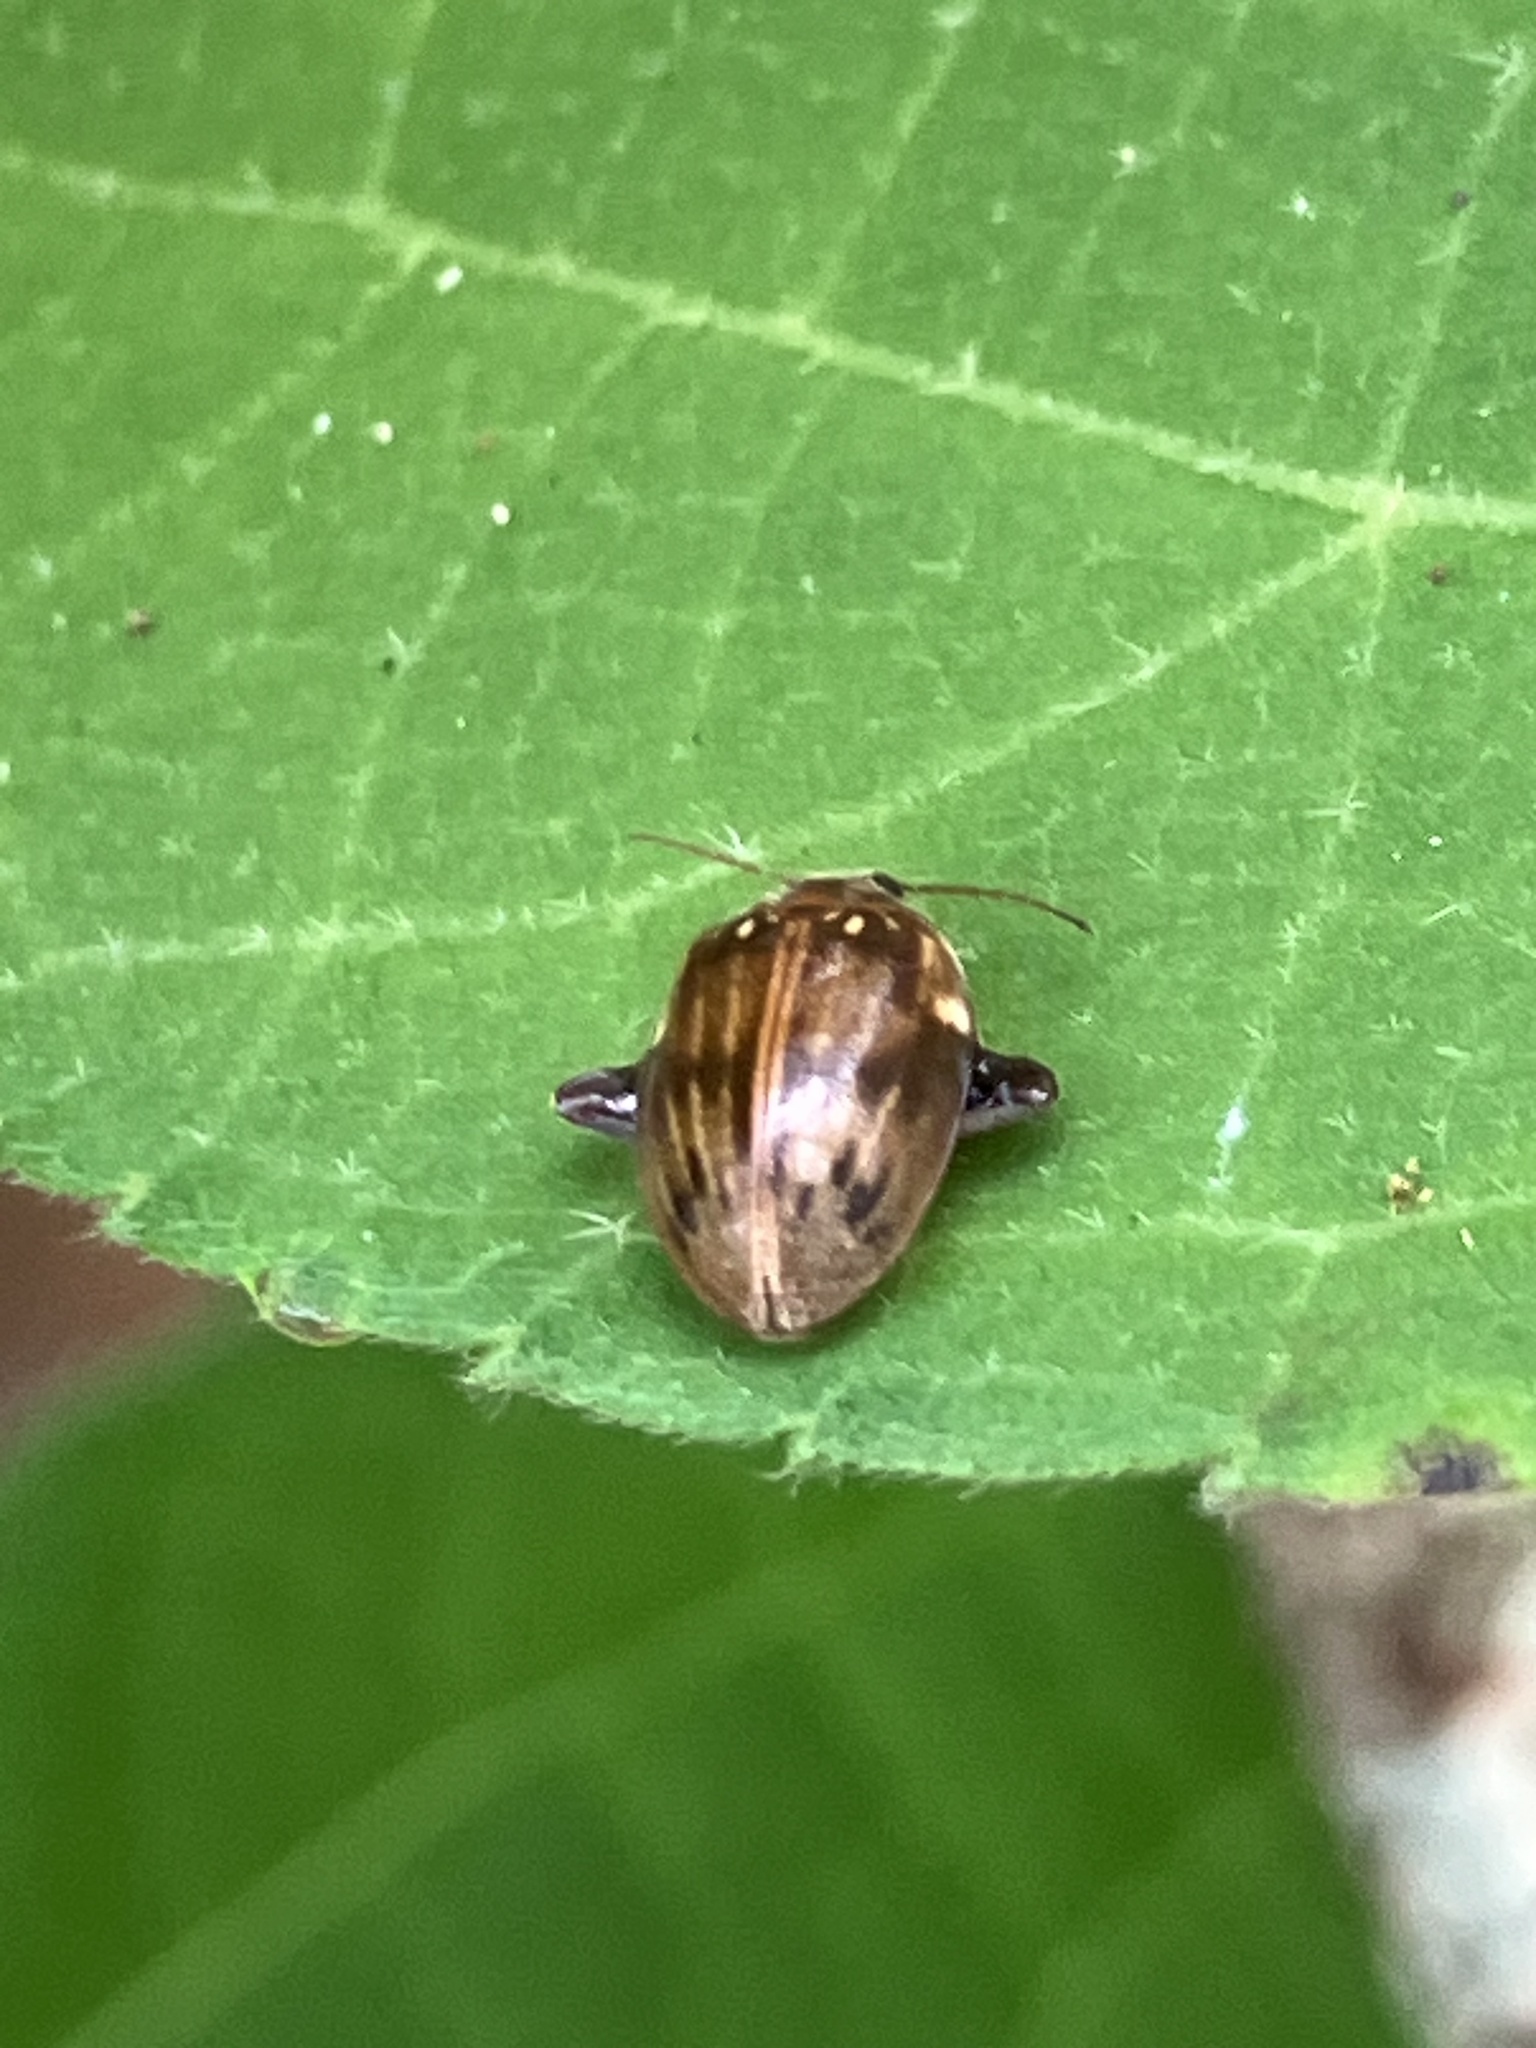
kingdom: Animalia
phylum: Arthropoda
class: Insecta
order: Coleoptera
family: Scirtidae
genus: Ora
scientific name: Ora texana
